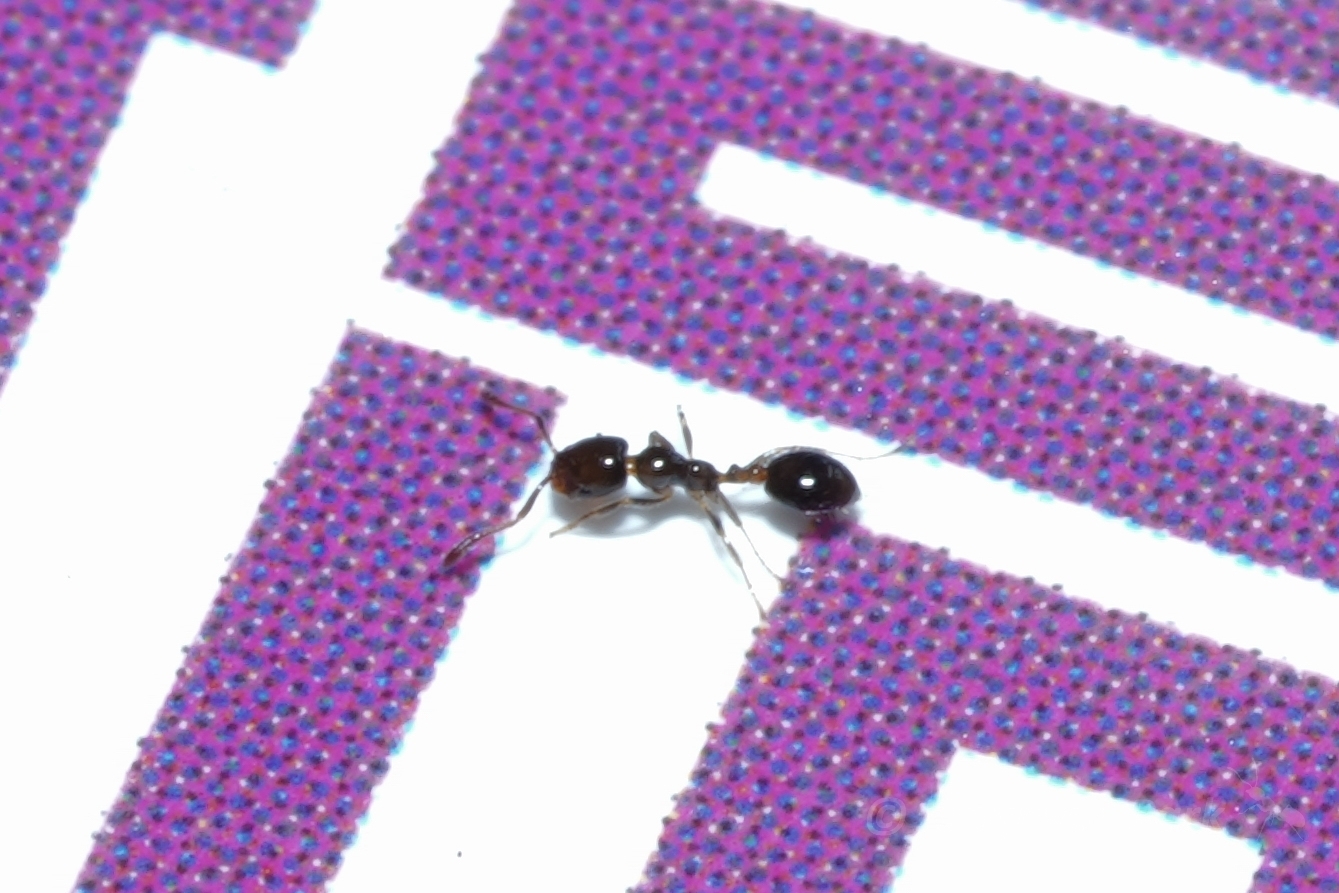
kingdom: Animalia
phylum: Arthropoda
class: Insecta
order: Hymenoptera
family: Formicidae
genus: Monomorium
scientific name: Monomorium chinense
